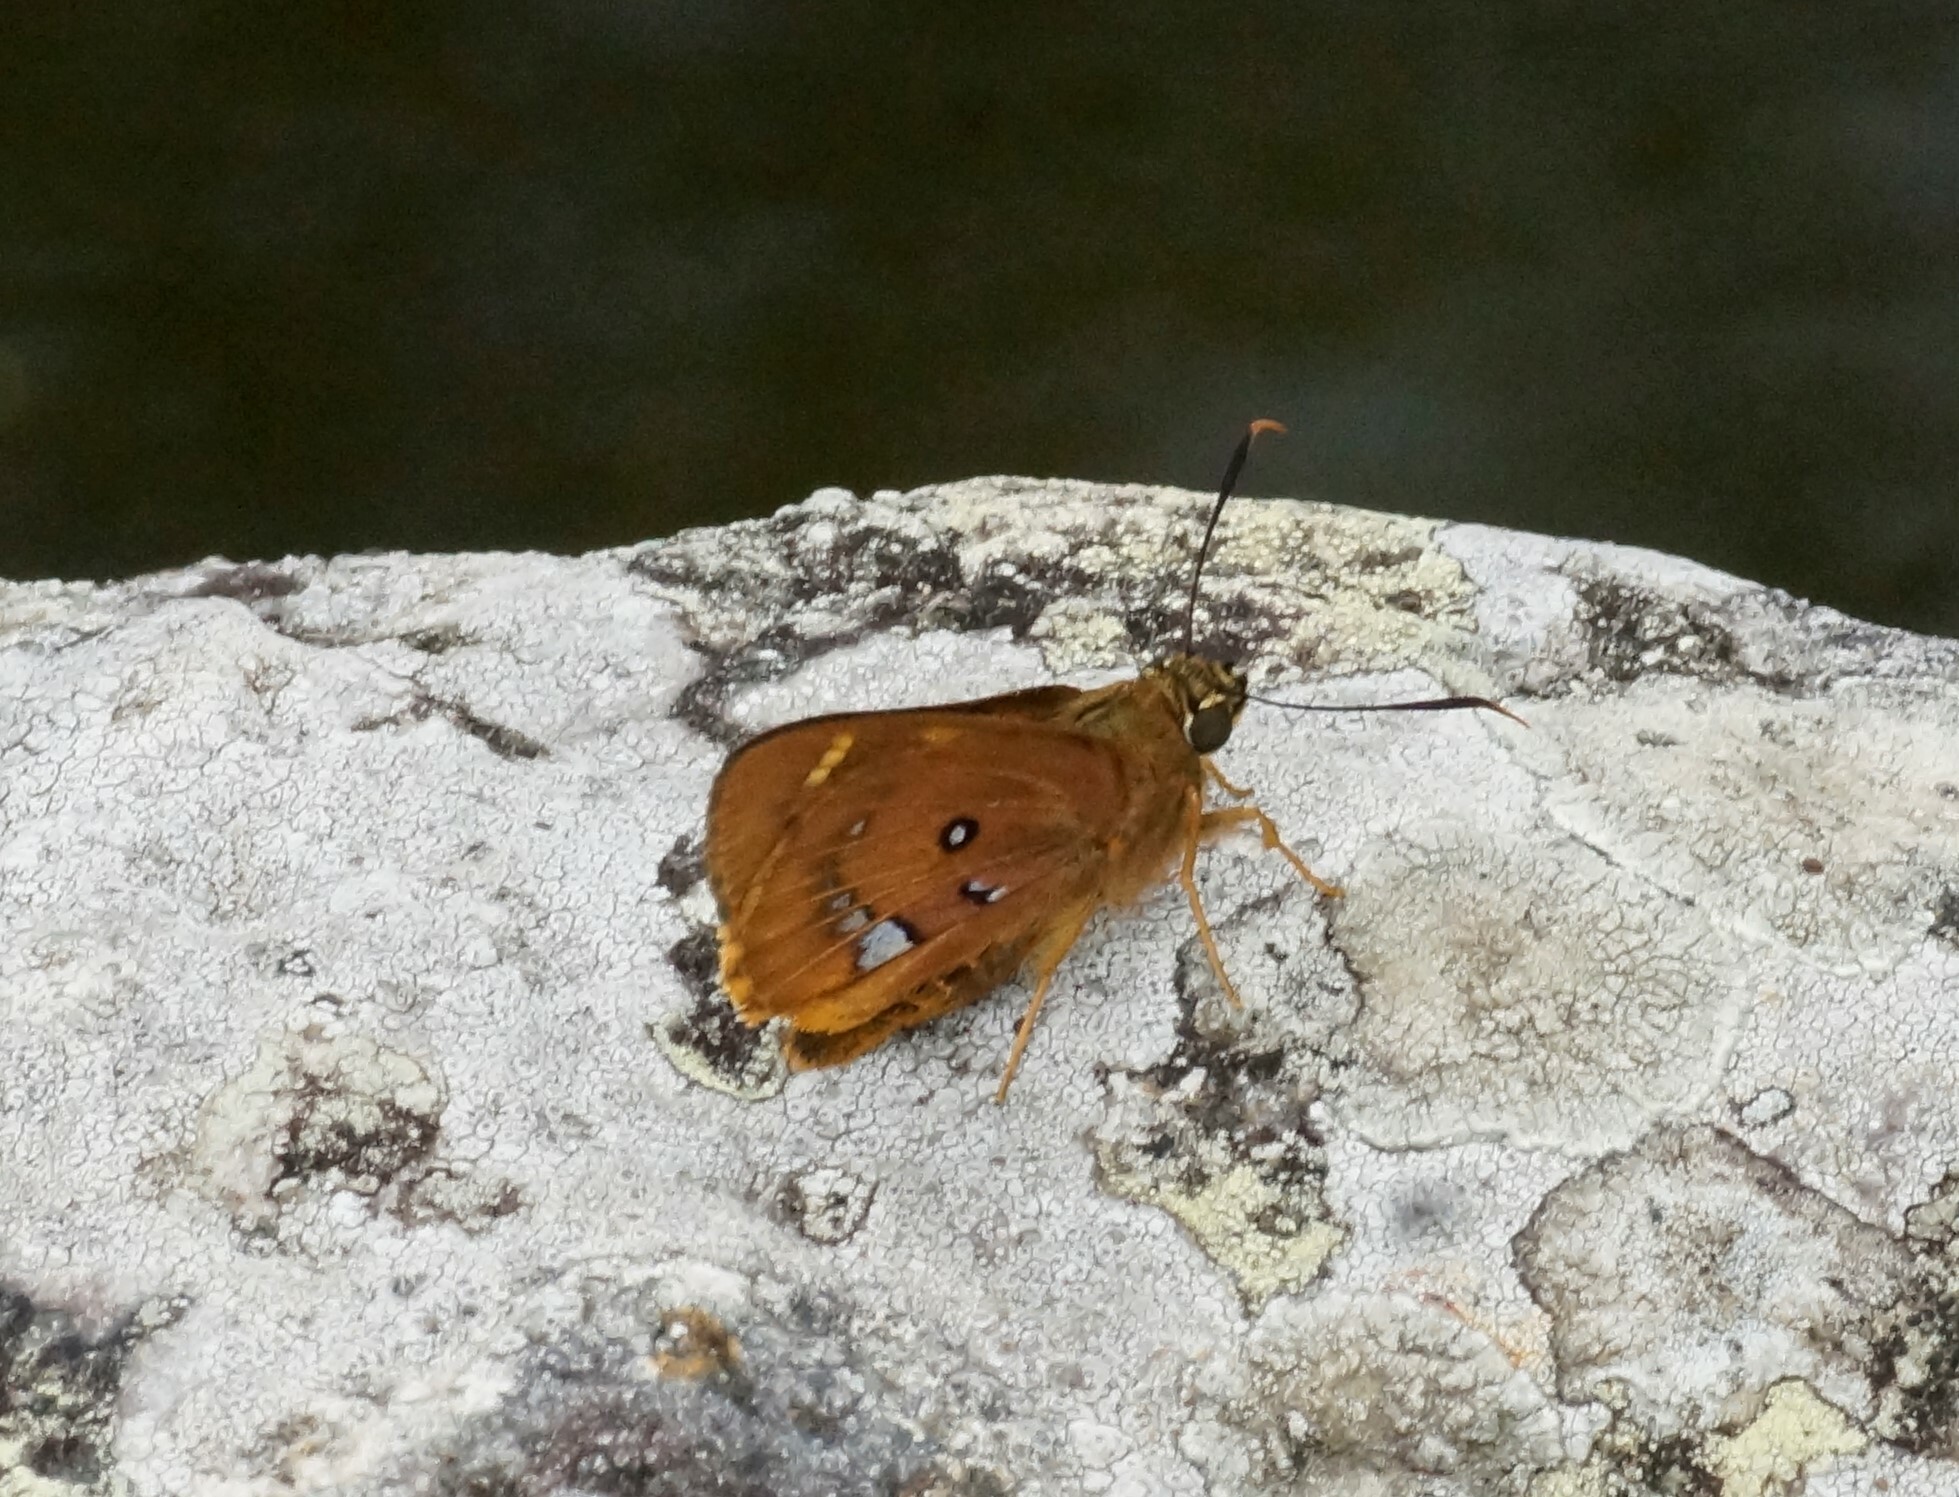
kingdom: Animalia
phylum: Arthropoda
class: Insecta
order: Lepidoptera
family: Hesperiidae
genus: Trapezites
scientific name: Trapezites symmomus
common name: Splendid ochre
